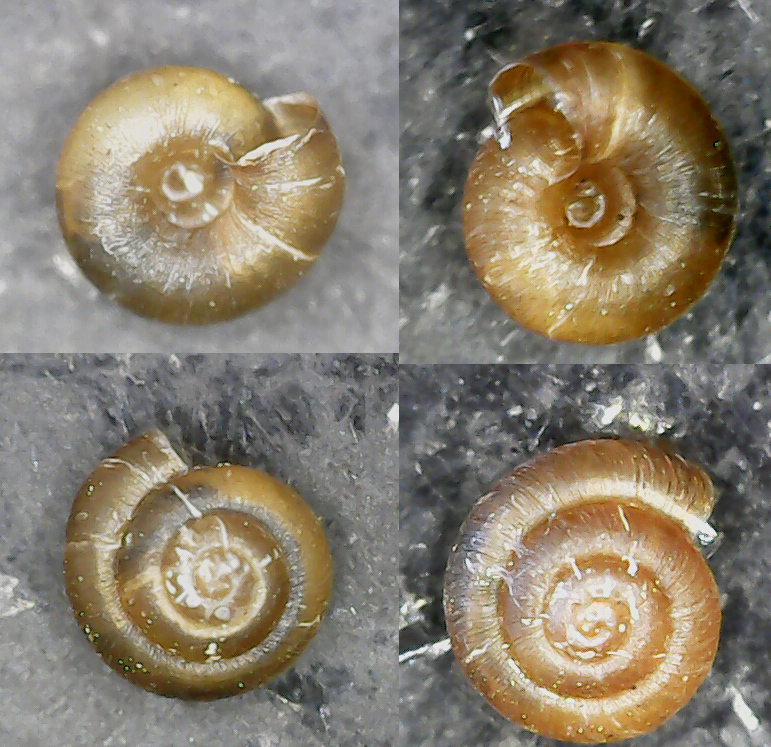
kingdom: Animalia
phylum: Mollusca
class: Gastropoda
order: Stylommatophora
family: Punctidae
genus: Punctum
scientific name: Punctum pygmaeum
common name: Dwarf snail
